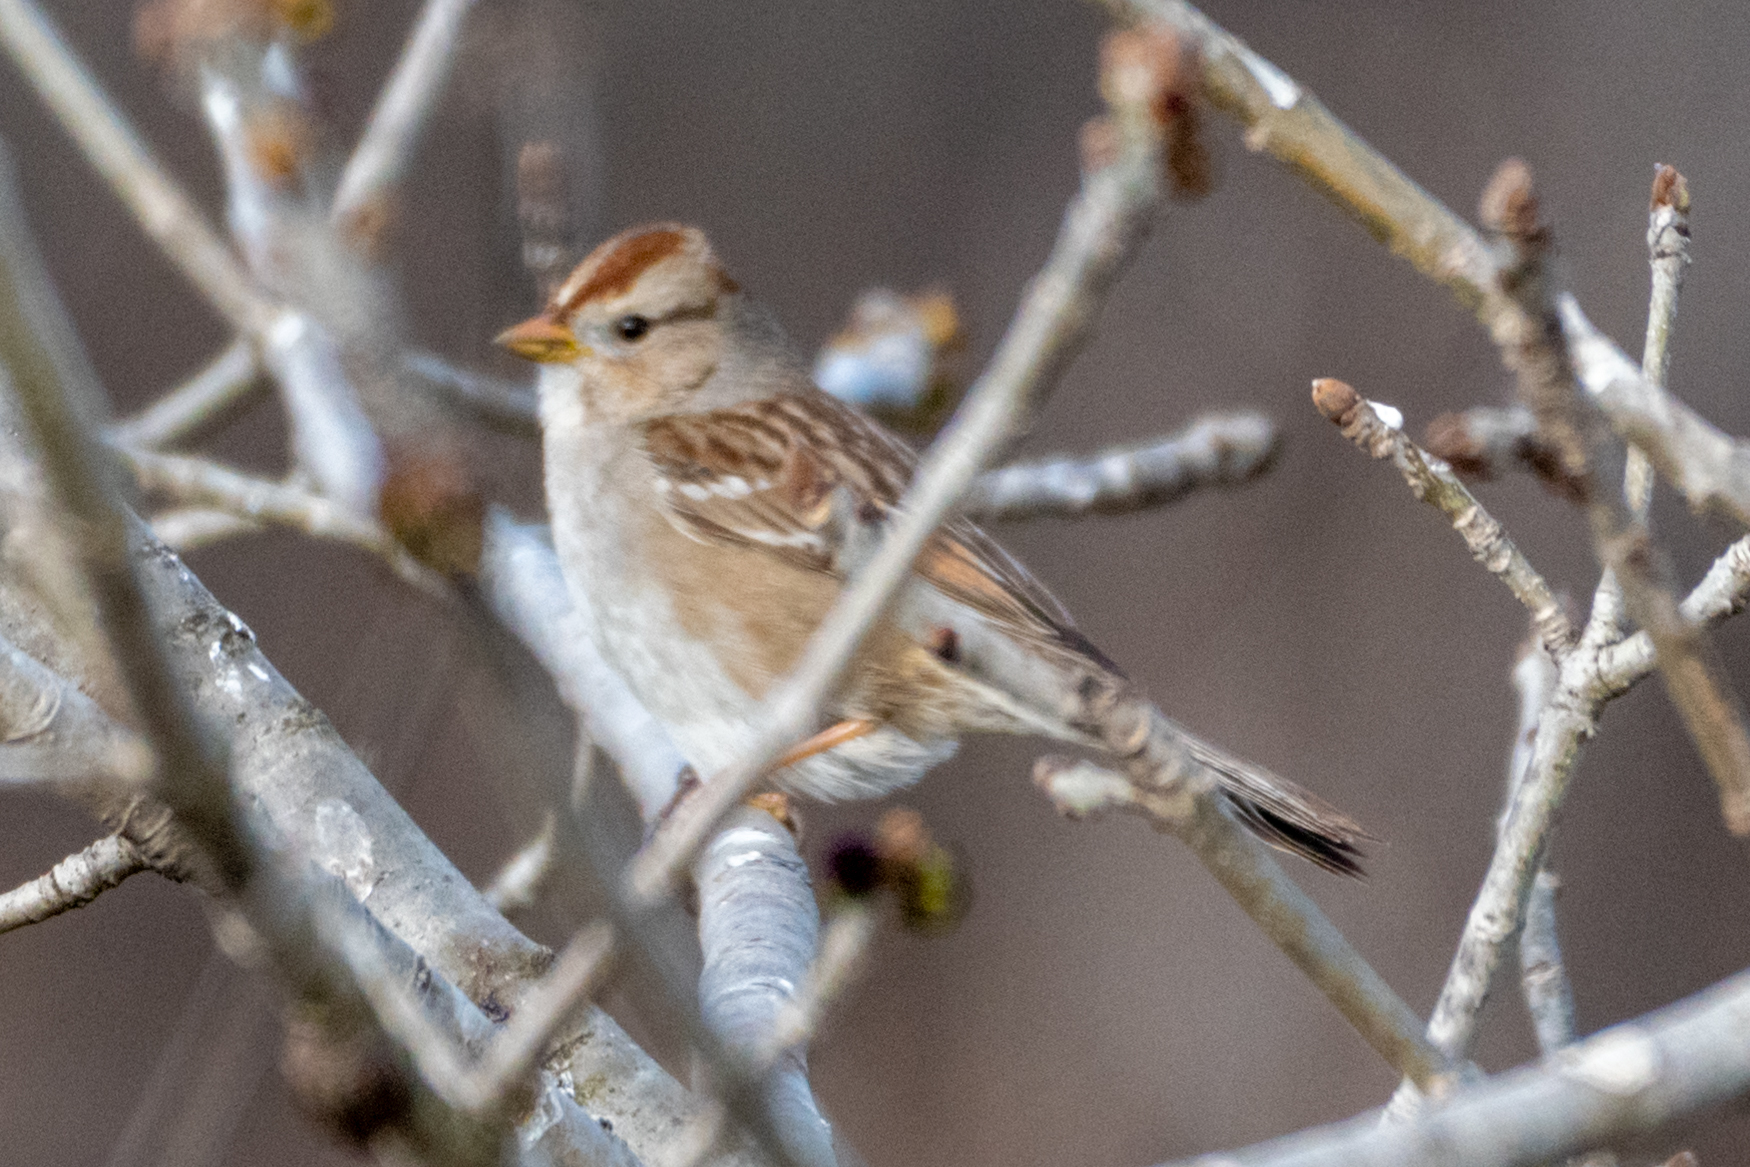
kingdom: Animalia
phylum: Chordata
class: Aves
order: Passeriformes
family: Passerellidae
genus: Zonotrichia
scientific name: Zonotrichia leucophrys
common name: White-crowned sparrow
